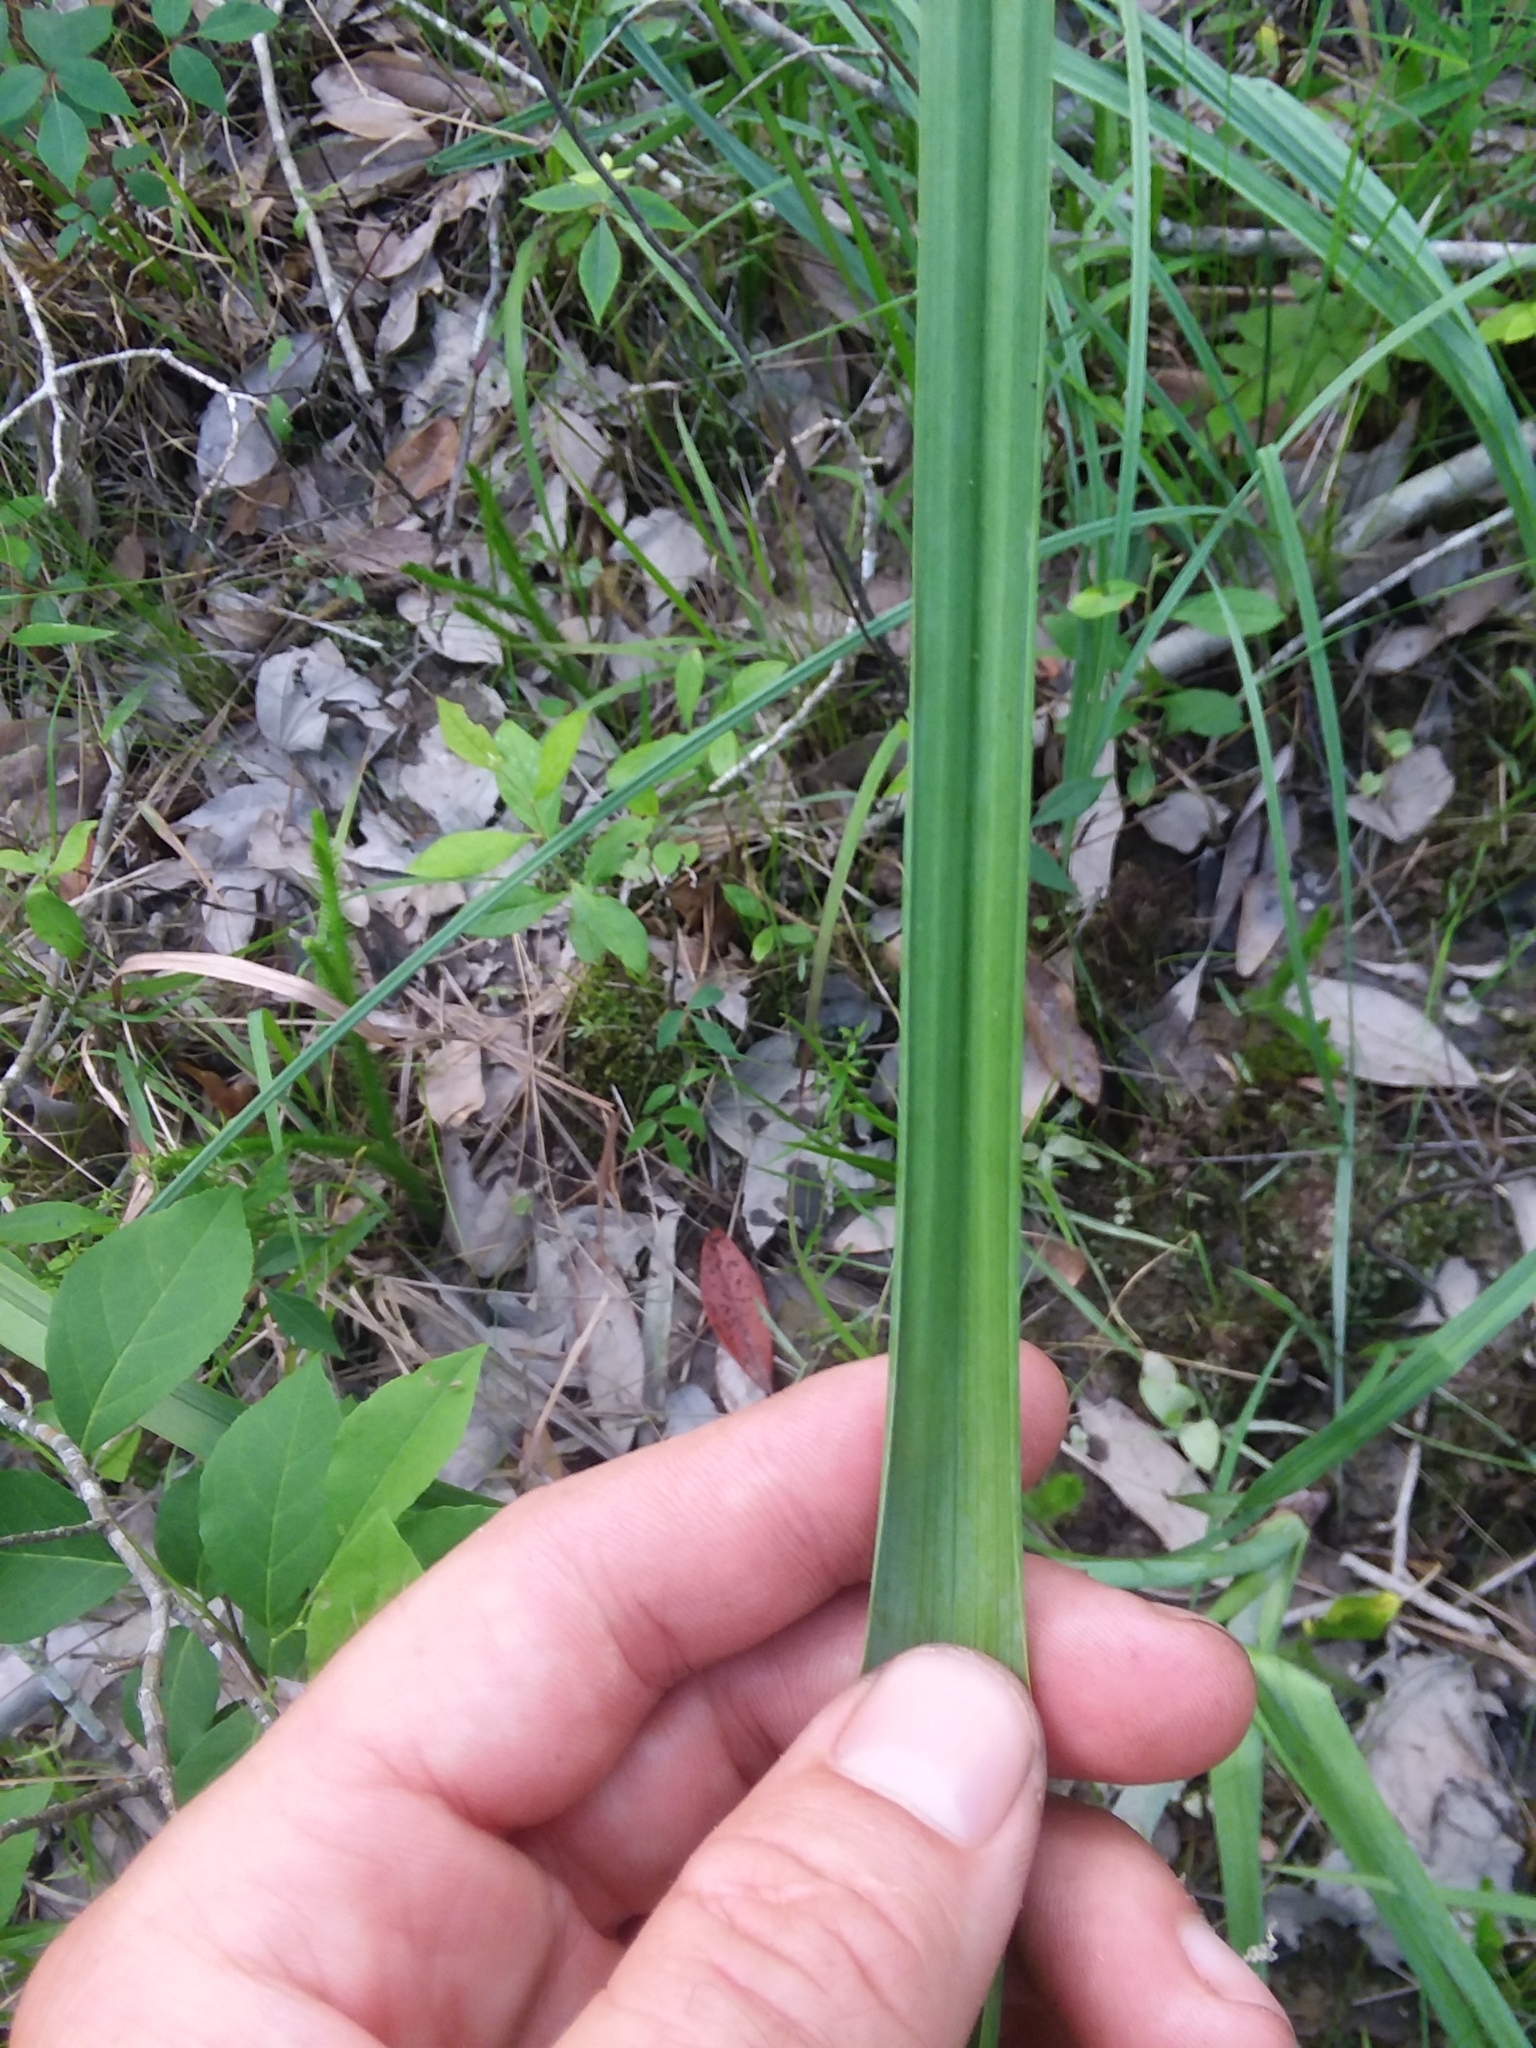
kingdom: Plantae
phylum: Tracheophyta
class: Liliopsida
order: Liliales
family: Melanthiaceae
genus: Stenanthium
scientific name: Stenanthium texanum
